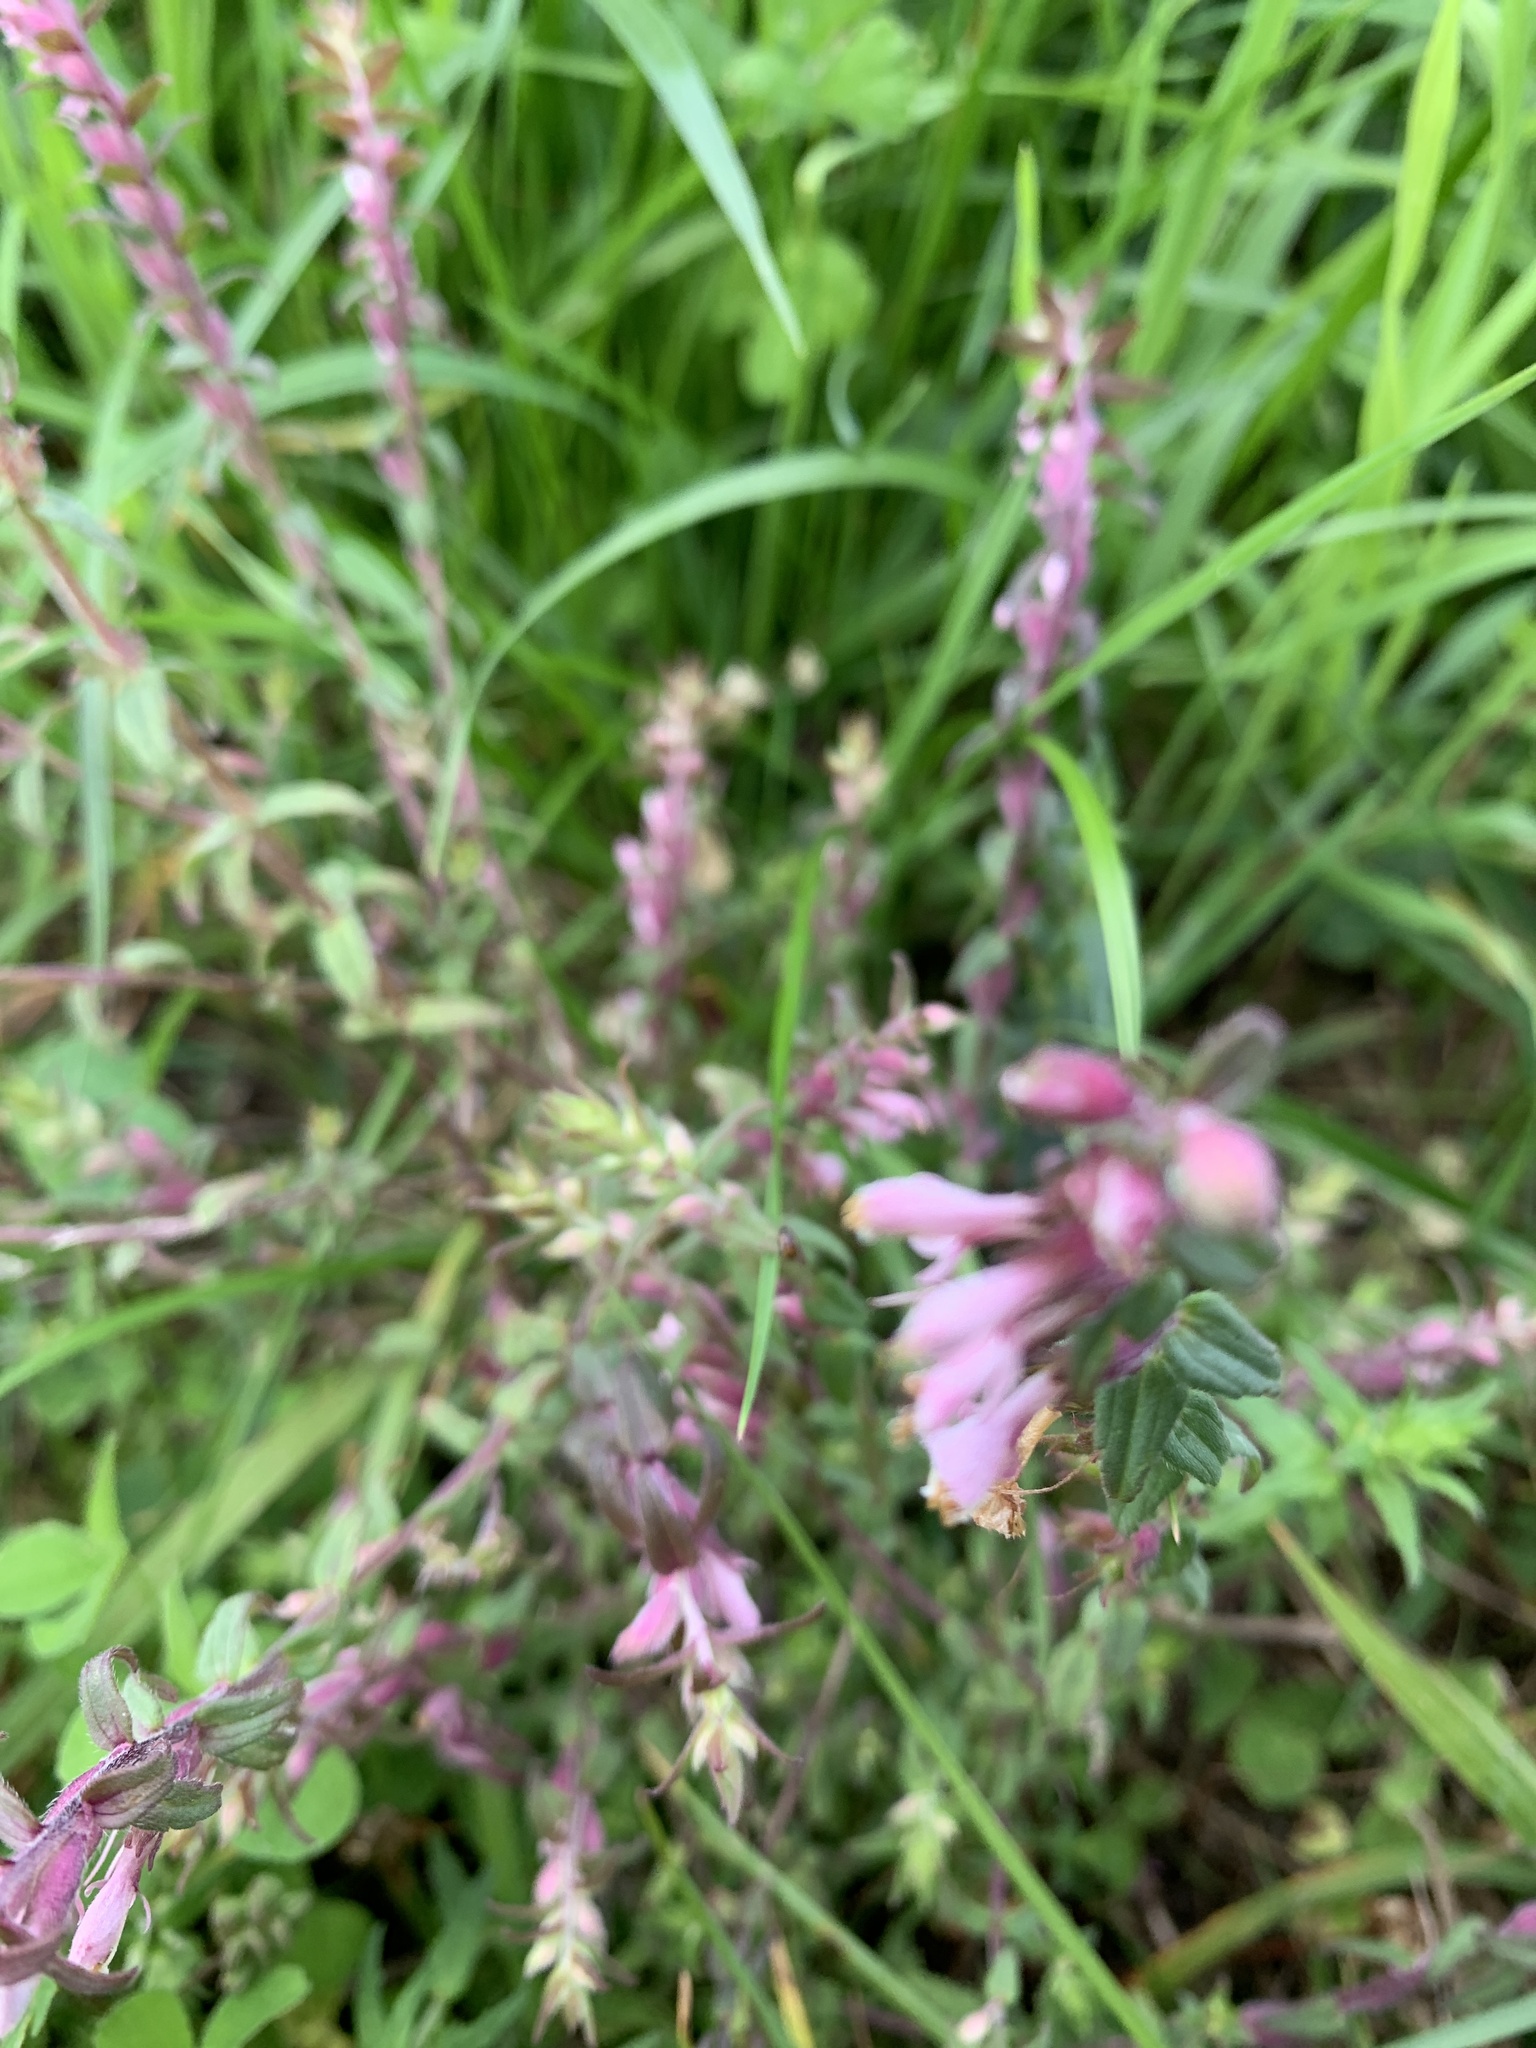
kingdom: Plantae
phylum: Tracheophyta
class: Magnoliopsida
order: Lamiales
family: Orobanchaceae
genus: Odontites
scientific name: Odontites vulgaris
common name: Broomrape
